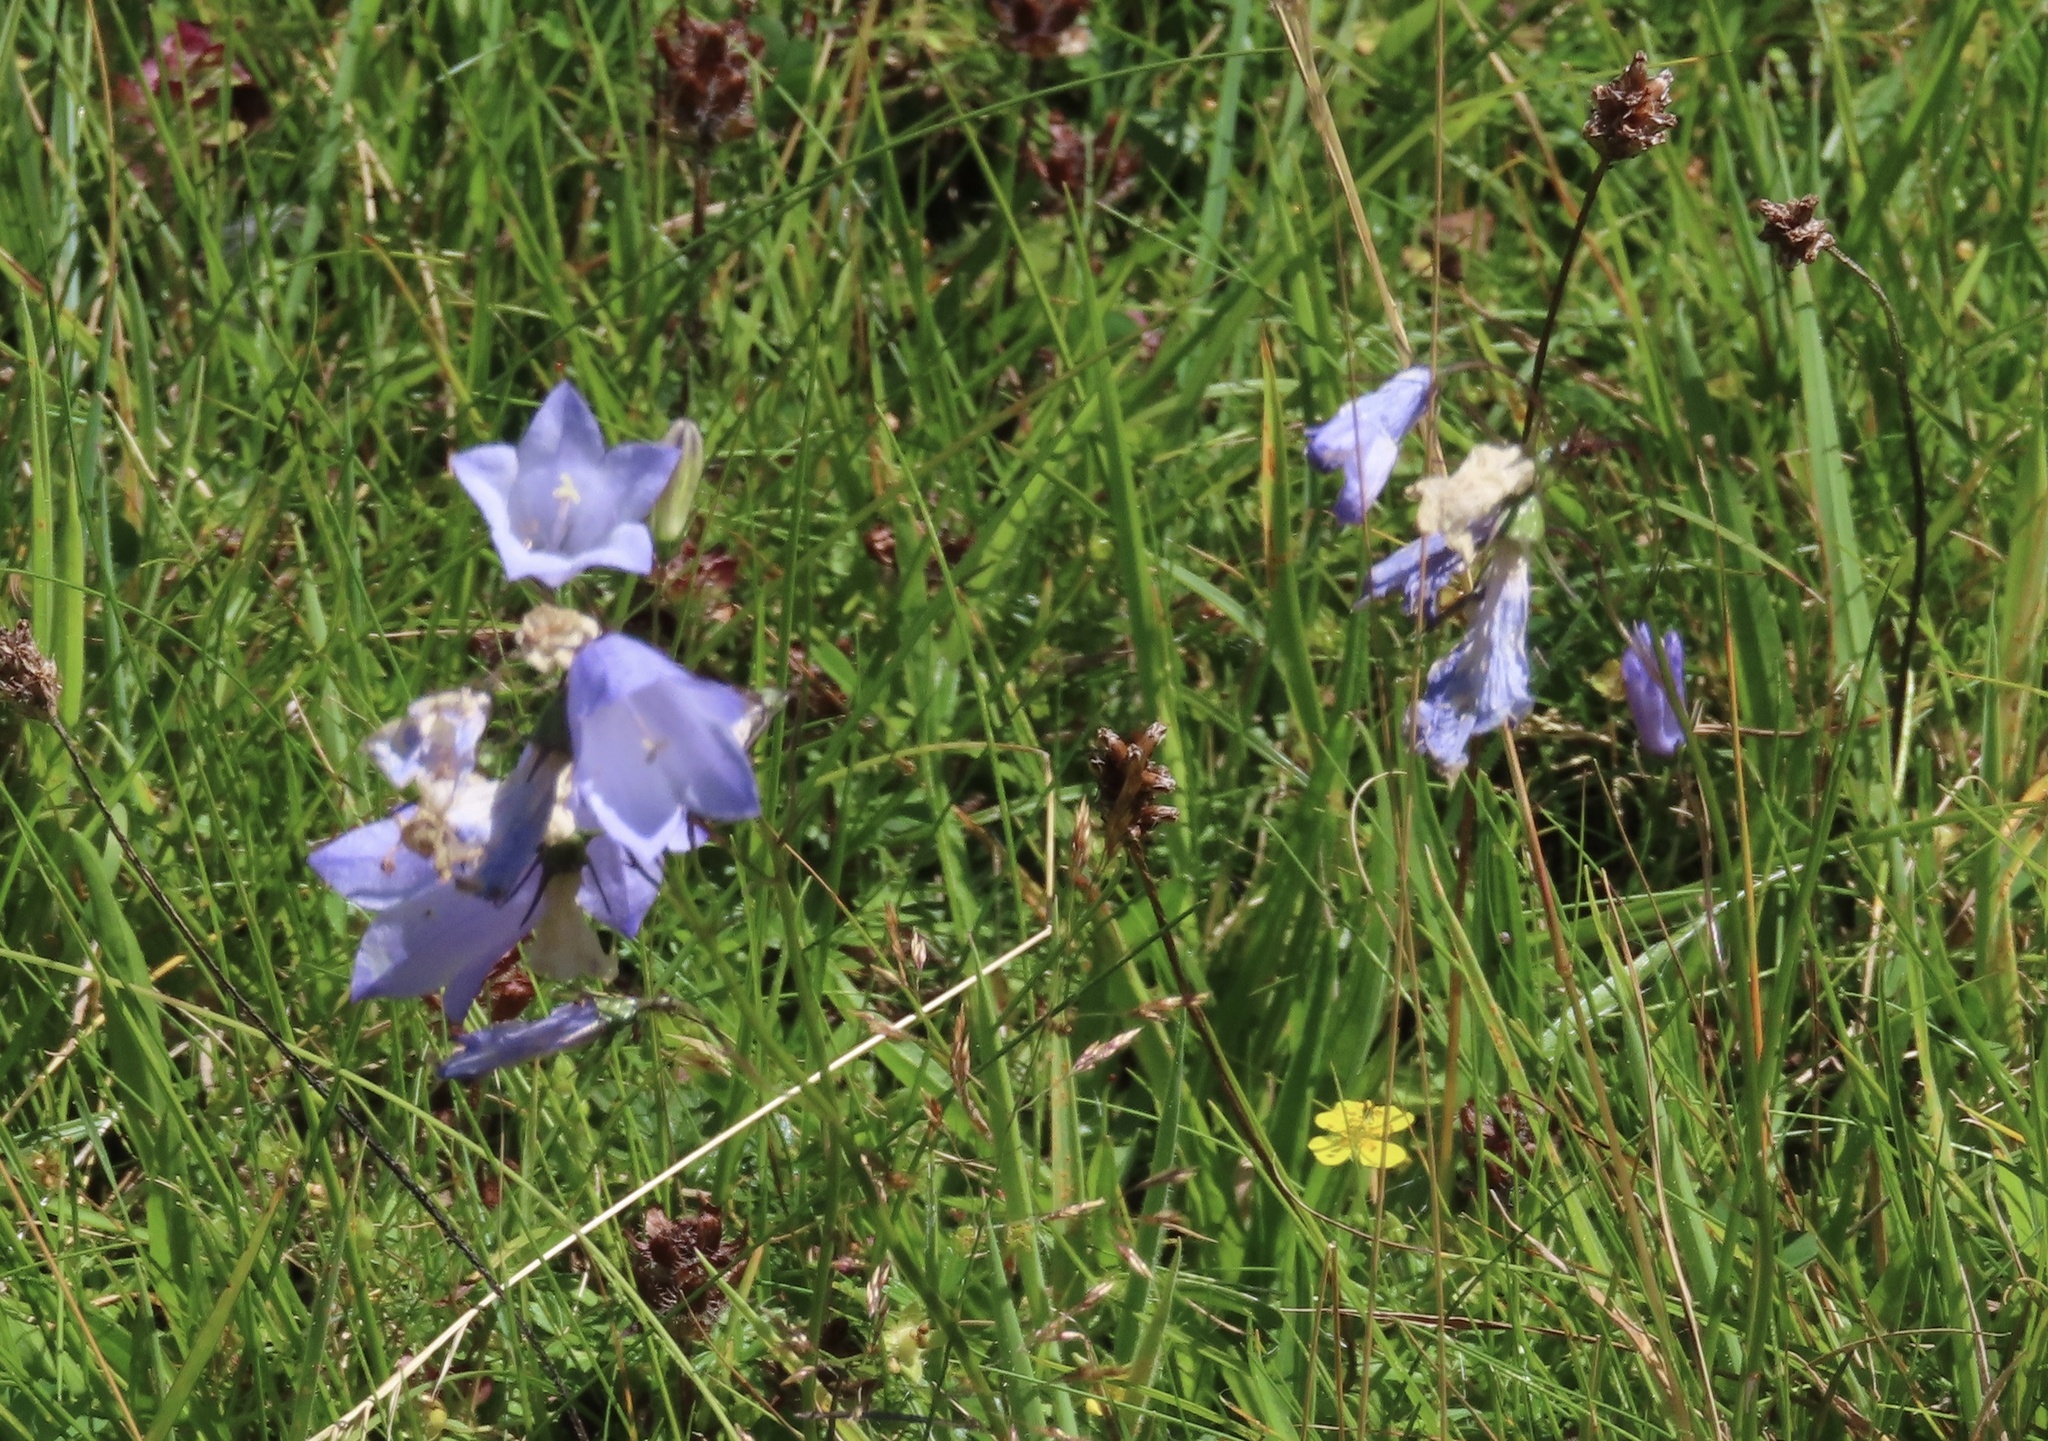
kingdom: Plantae
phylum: Tracheophyta
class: Magnoliopsida
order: Asterales
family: Campanulaceae
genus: Campanula
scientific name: Campanula rotundifolia
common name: Harebell
